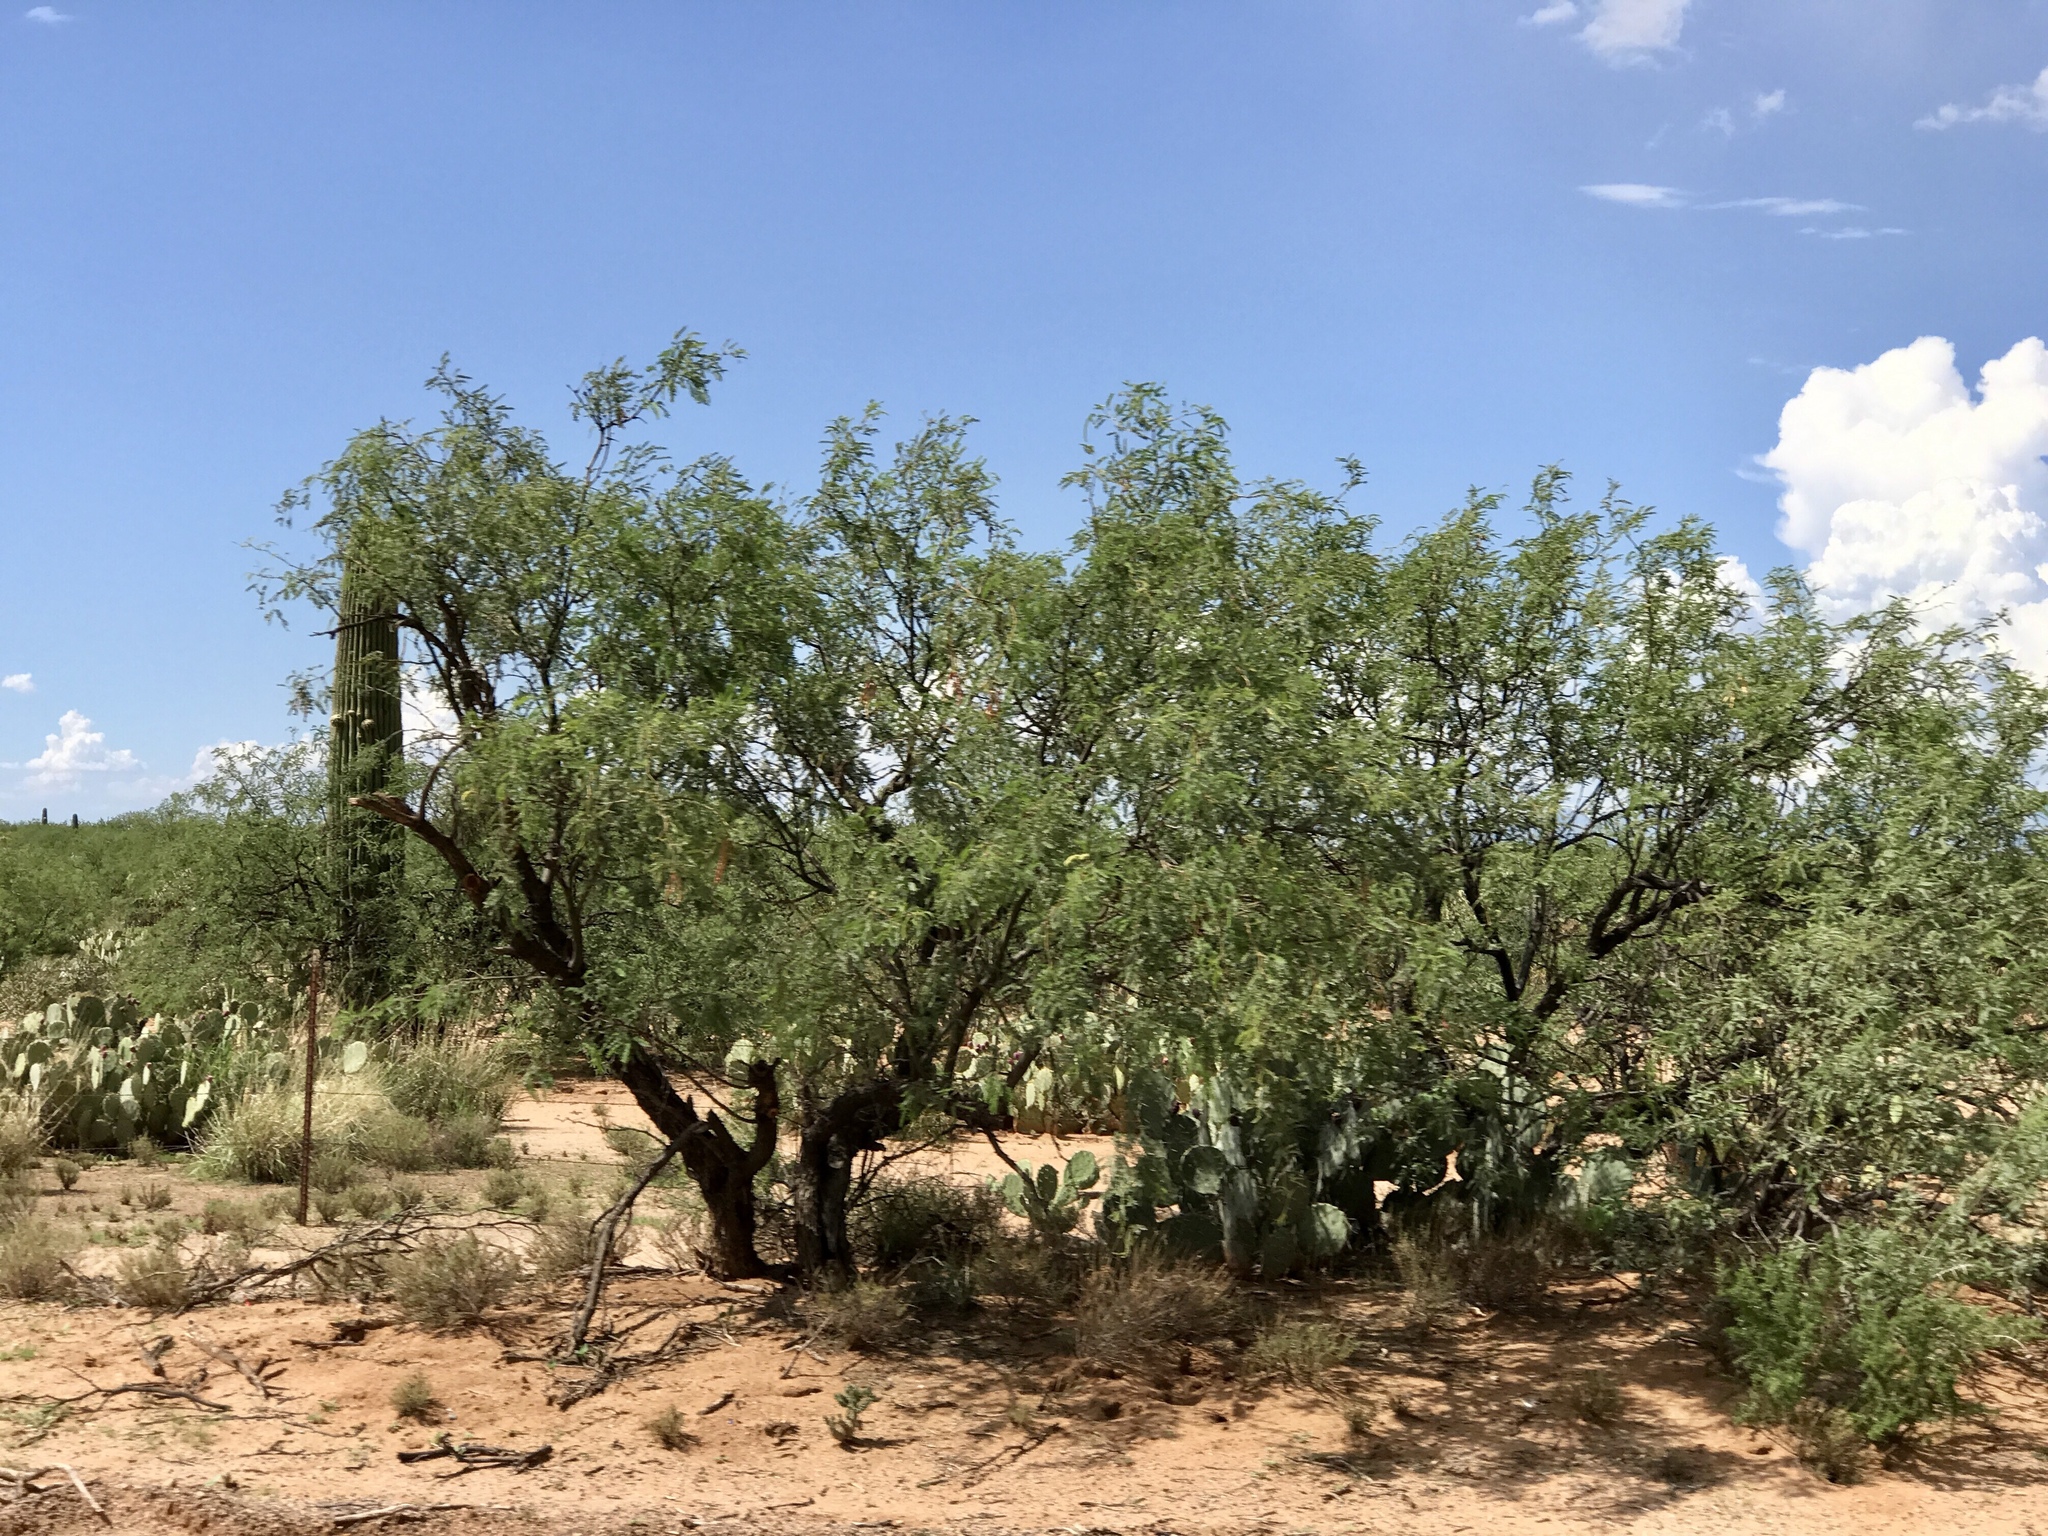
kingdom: Plantae
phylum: Tracheophyta
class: Magnoliopsida
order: Fabales
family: Fabaceae
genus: Prosopis
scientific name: Prosopis glandulosa
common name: Honey mesquite
